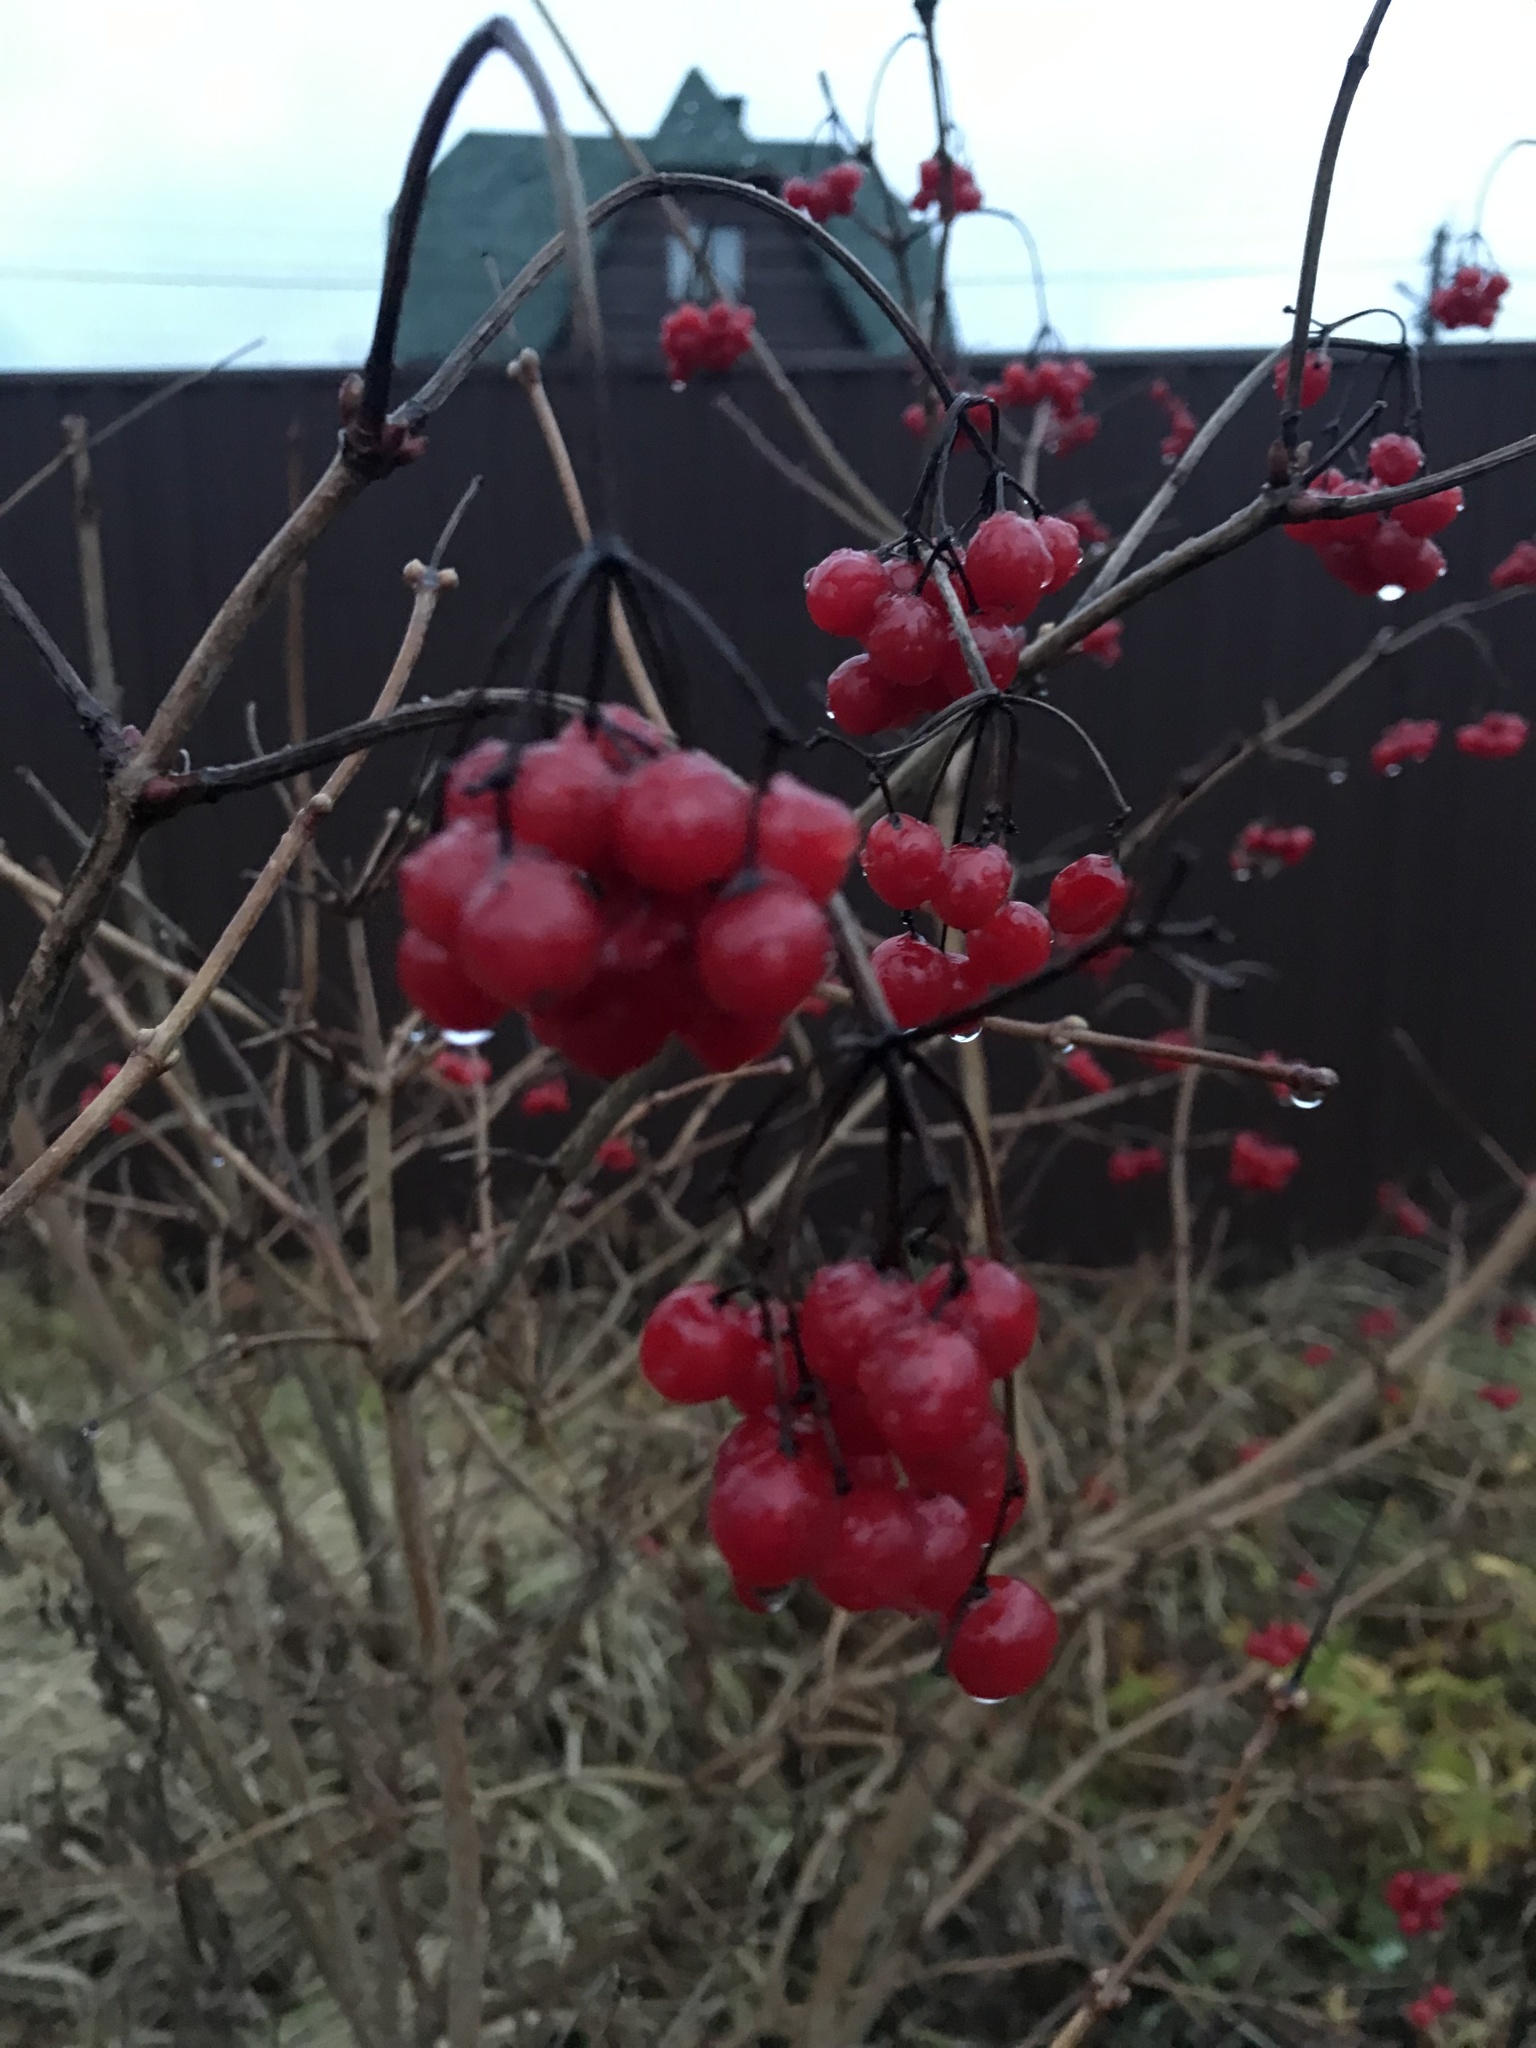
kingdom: Plantae
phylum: Tracheophyta
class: Magnoliopsida
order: Dipsacales
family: Viburnaceae
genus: Viburnum
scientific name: Viburnum opulus
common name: Guelder-rose
